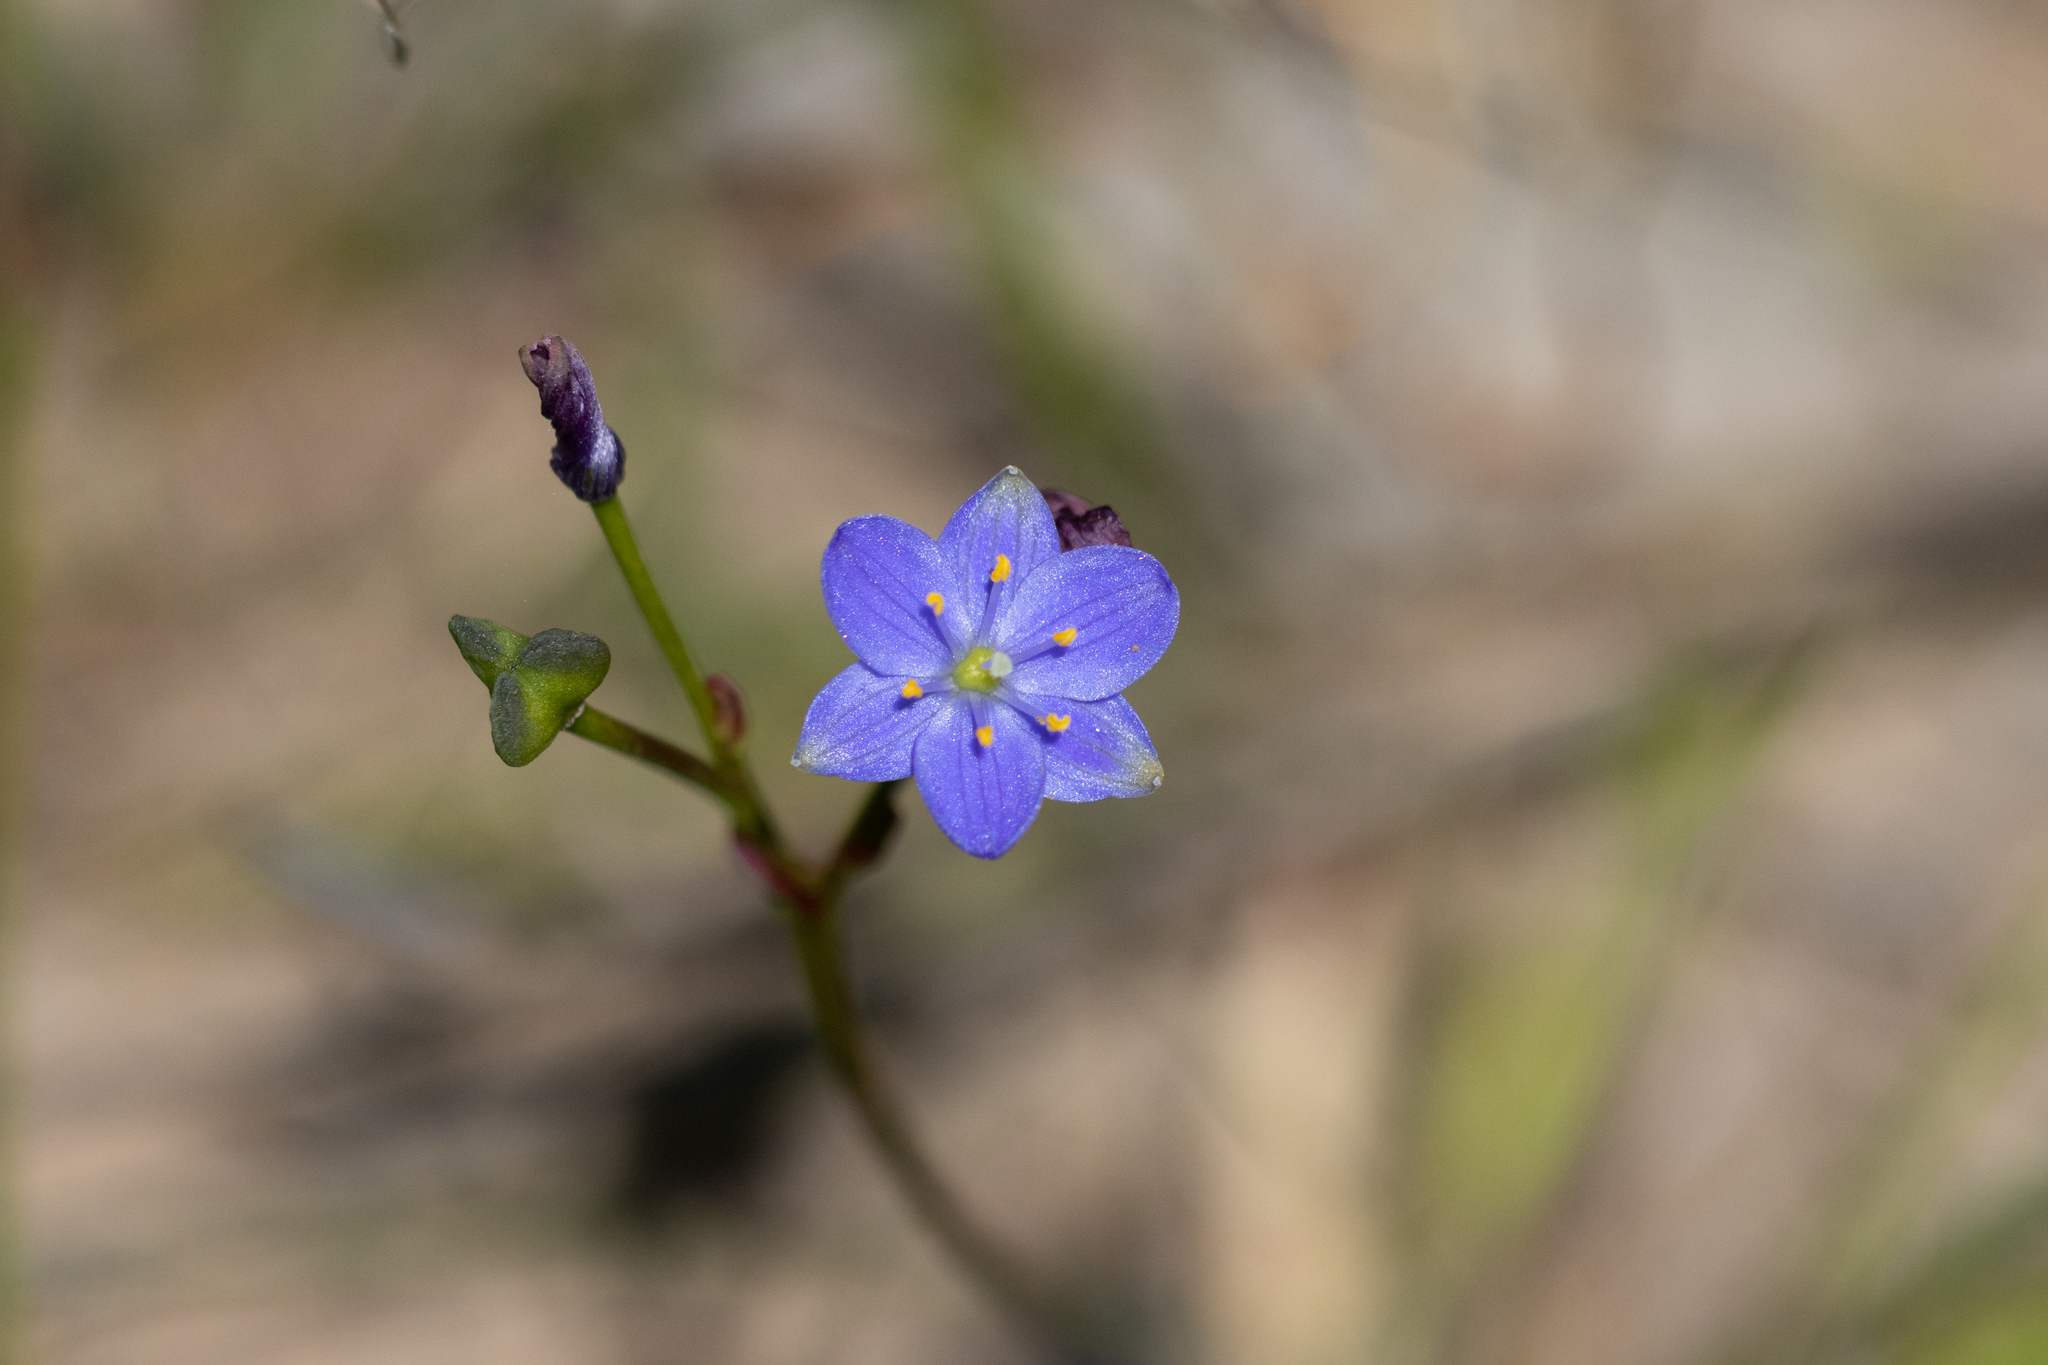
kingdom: Plantae
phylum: Tracheophyta
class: Liliopsida
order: Asparagales
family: Asphodelaceae
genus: Chamaescilla
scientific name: Chamaescilla corymbosa
